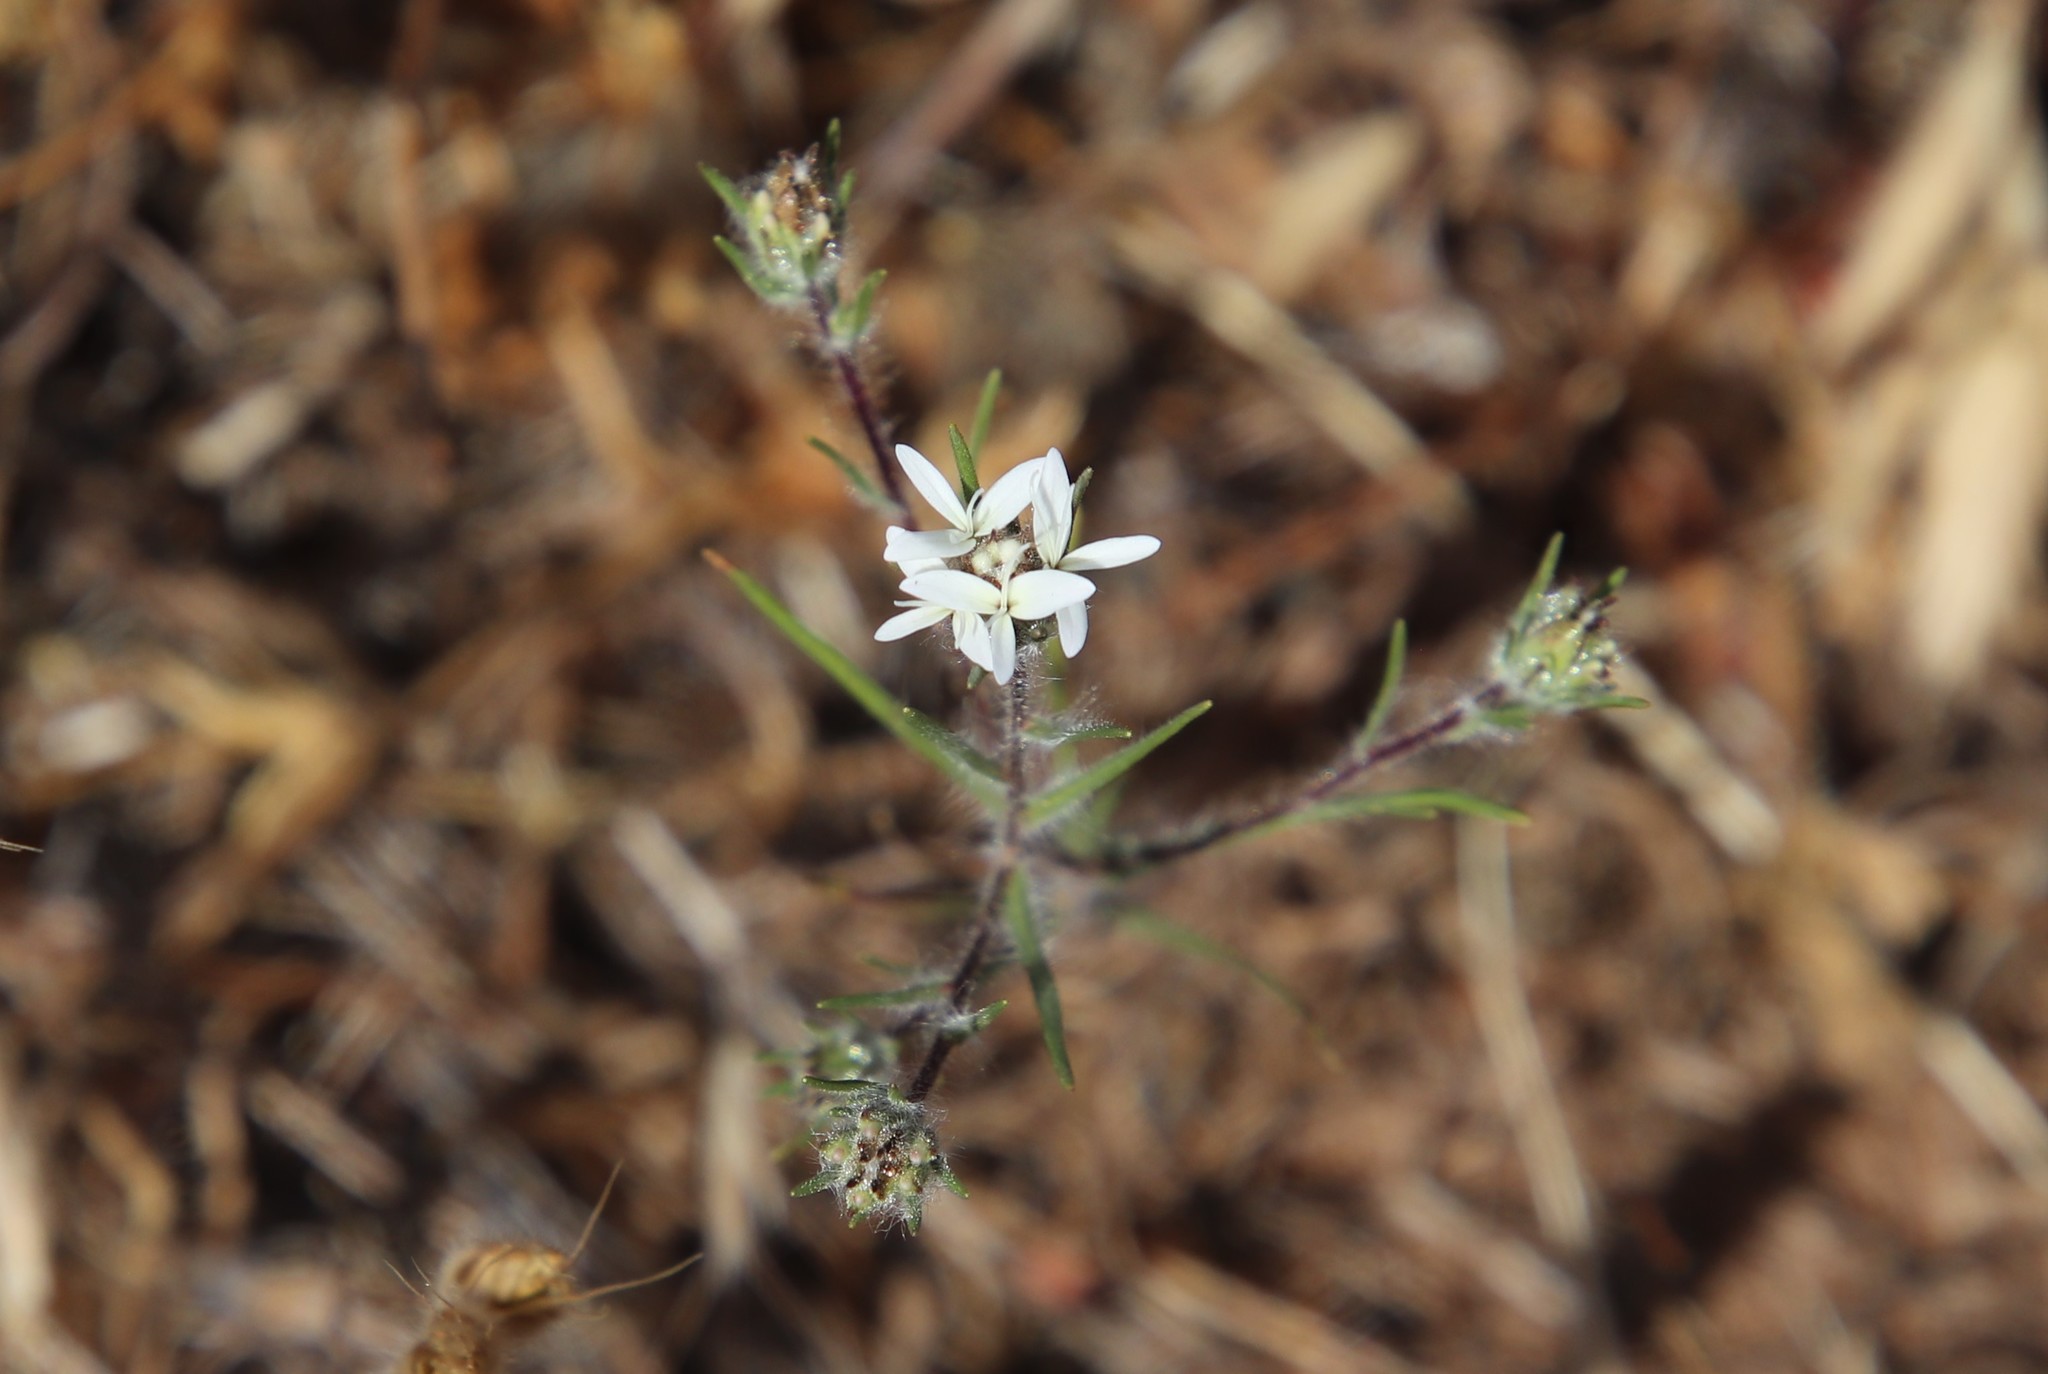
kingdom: Plantae
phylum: Tracheophyta
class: Magnoliopsida
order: Asterales
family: Asteraceae
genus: Osmadenia
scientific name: Osmadenia tenella
